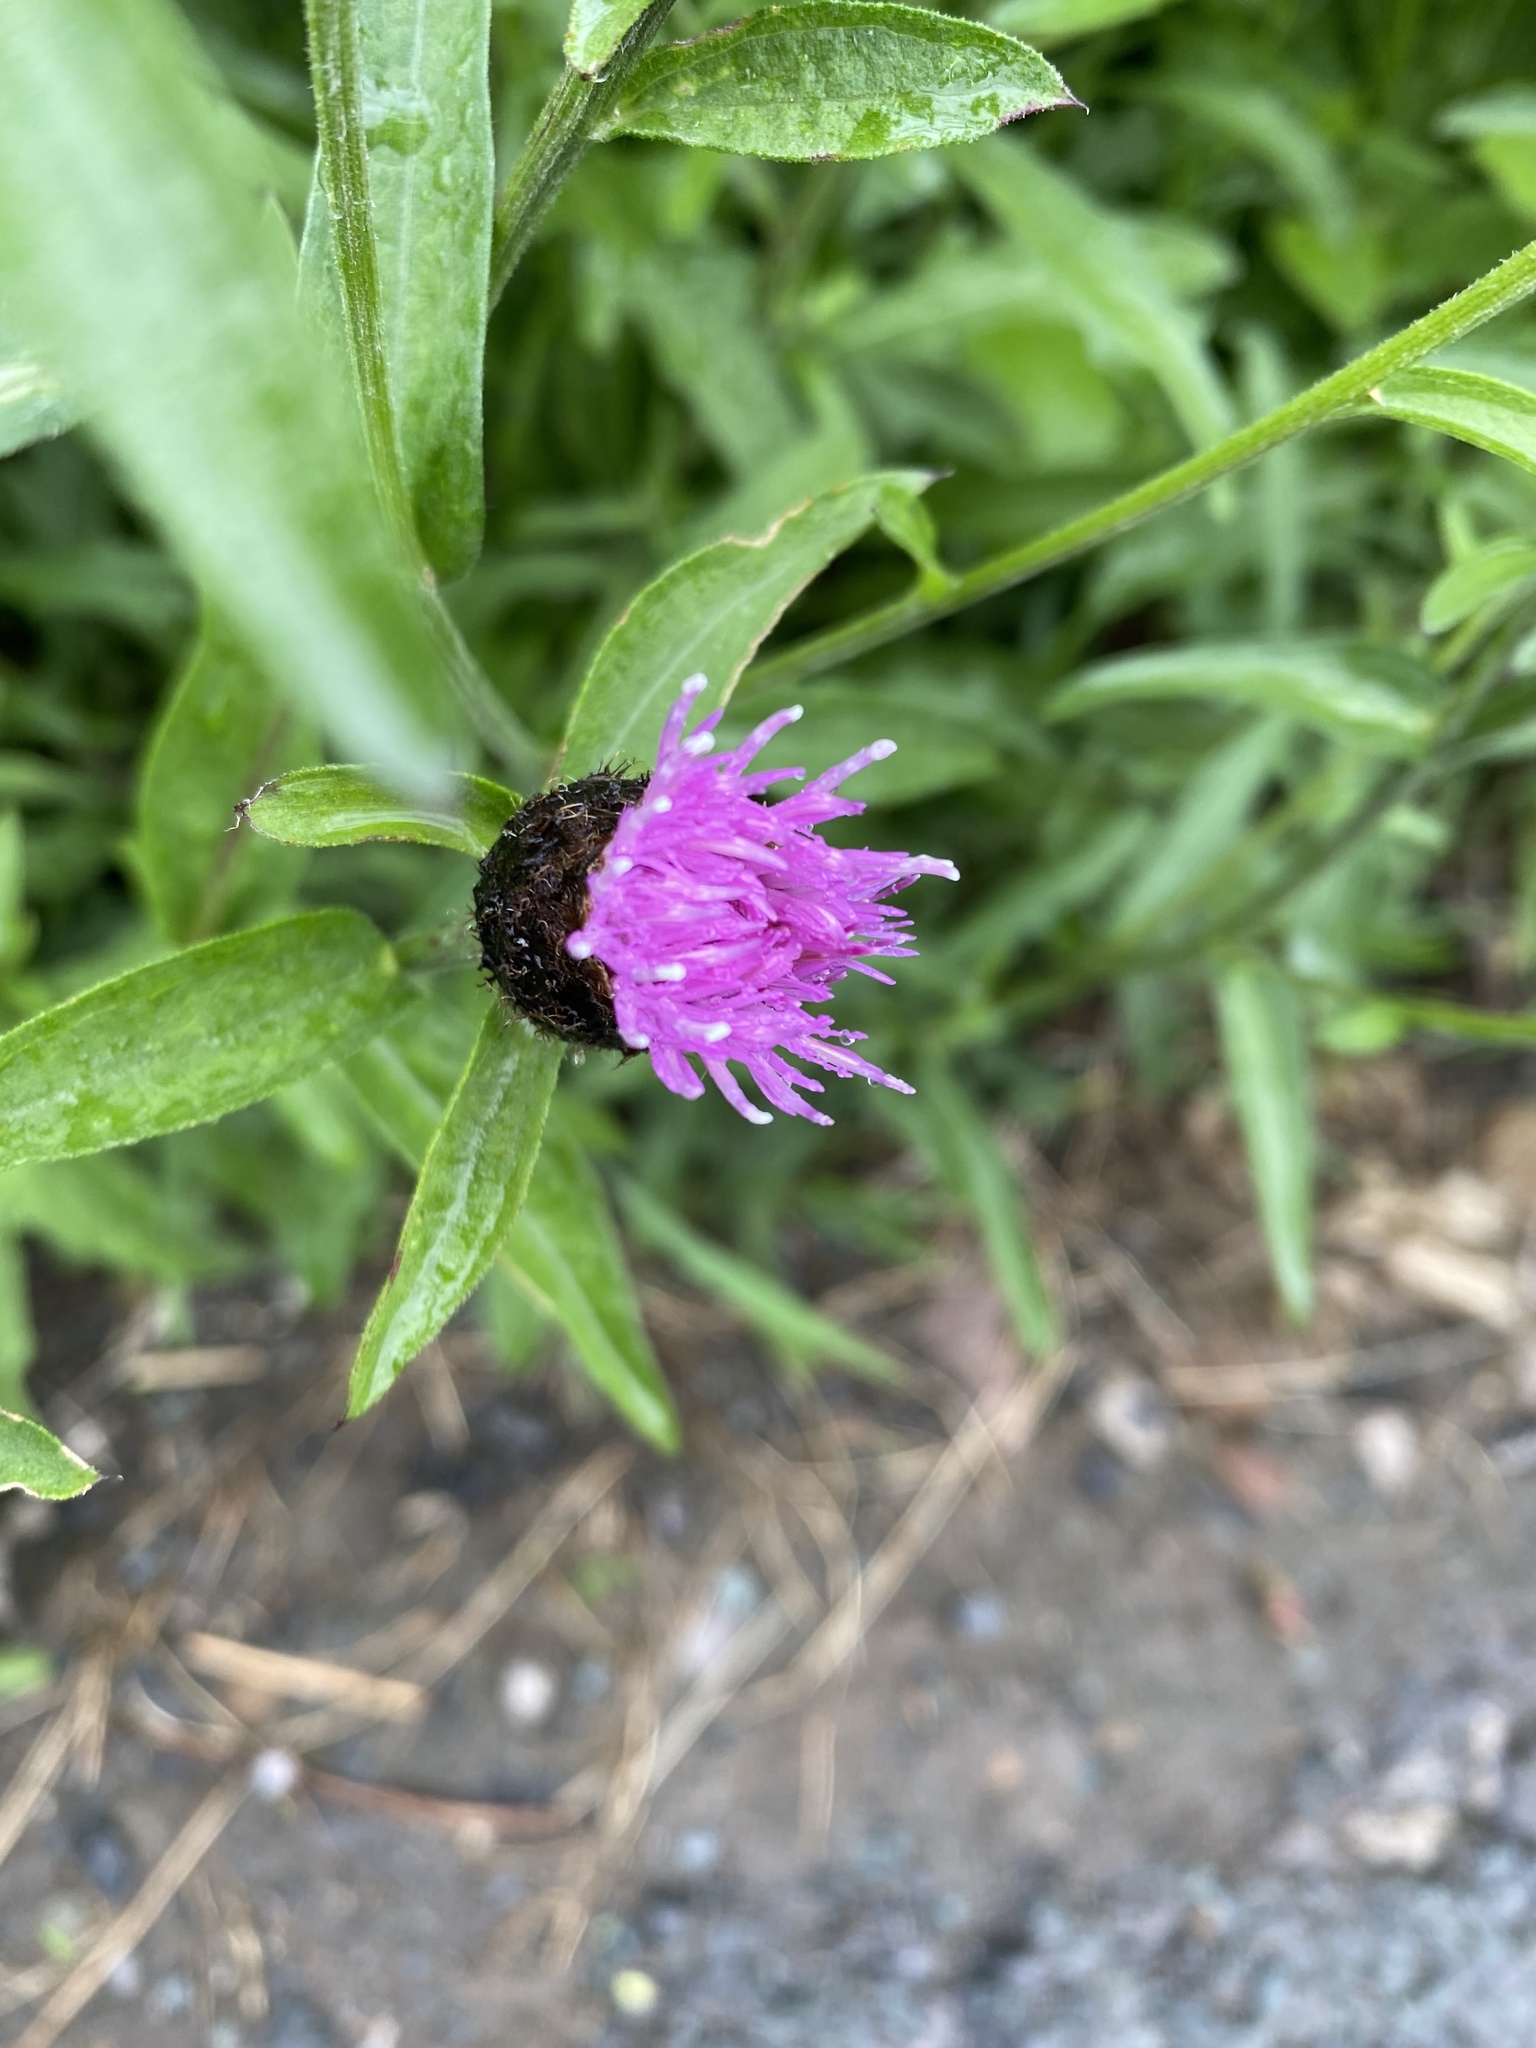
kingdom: Plantae
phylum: Tracheophyta
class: Magnoliopsida
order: Asterales
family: Asteraceae
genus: Centaurea
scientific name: Centaurea nigra
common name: Lesser knapweed
